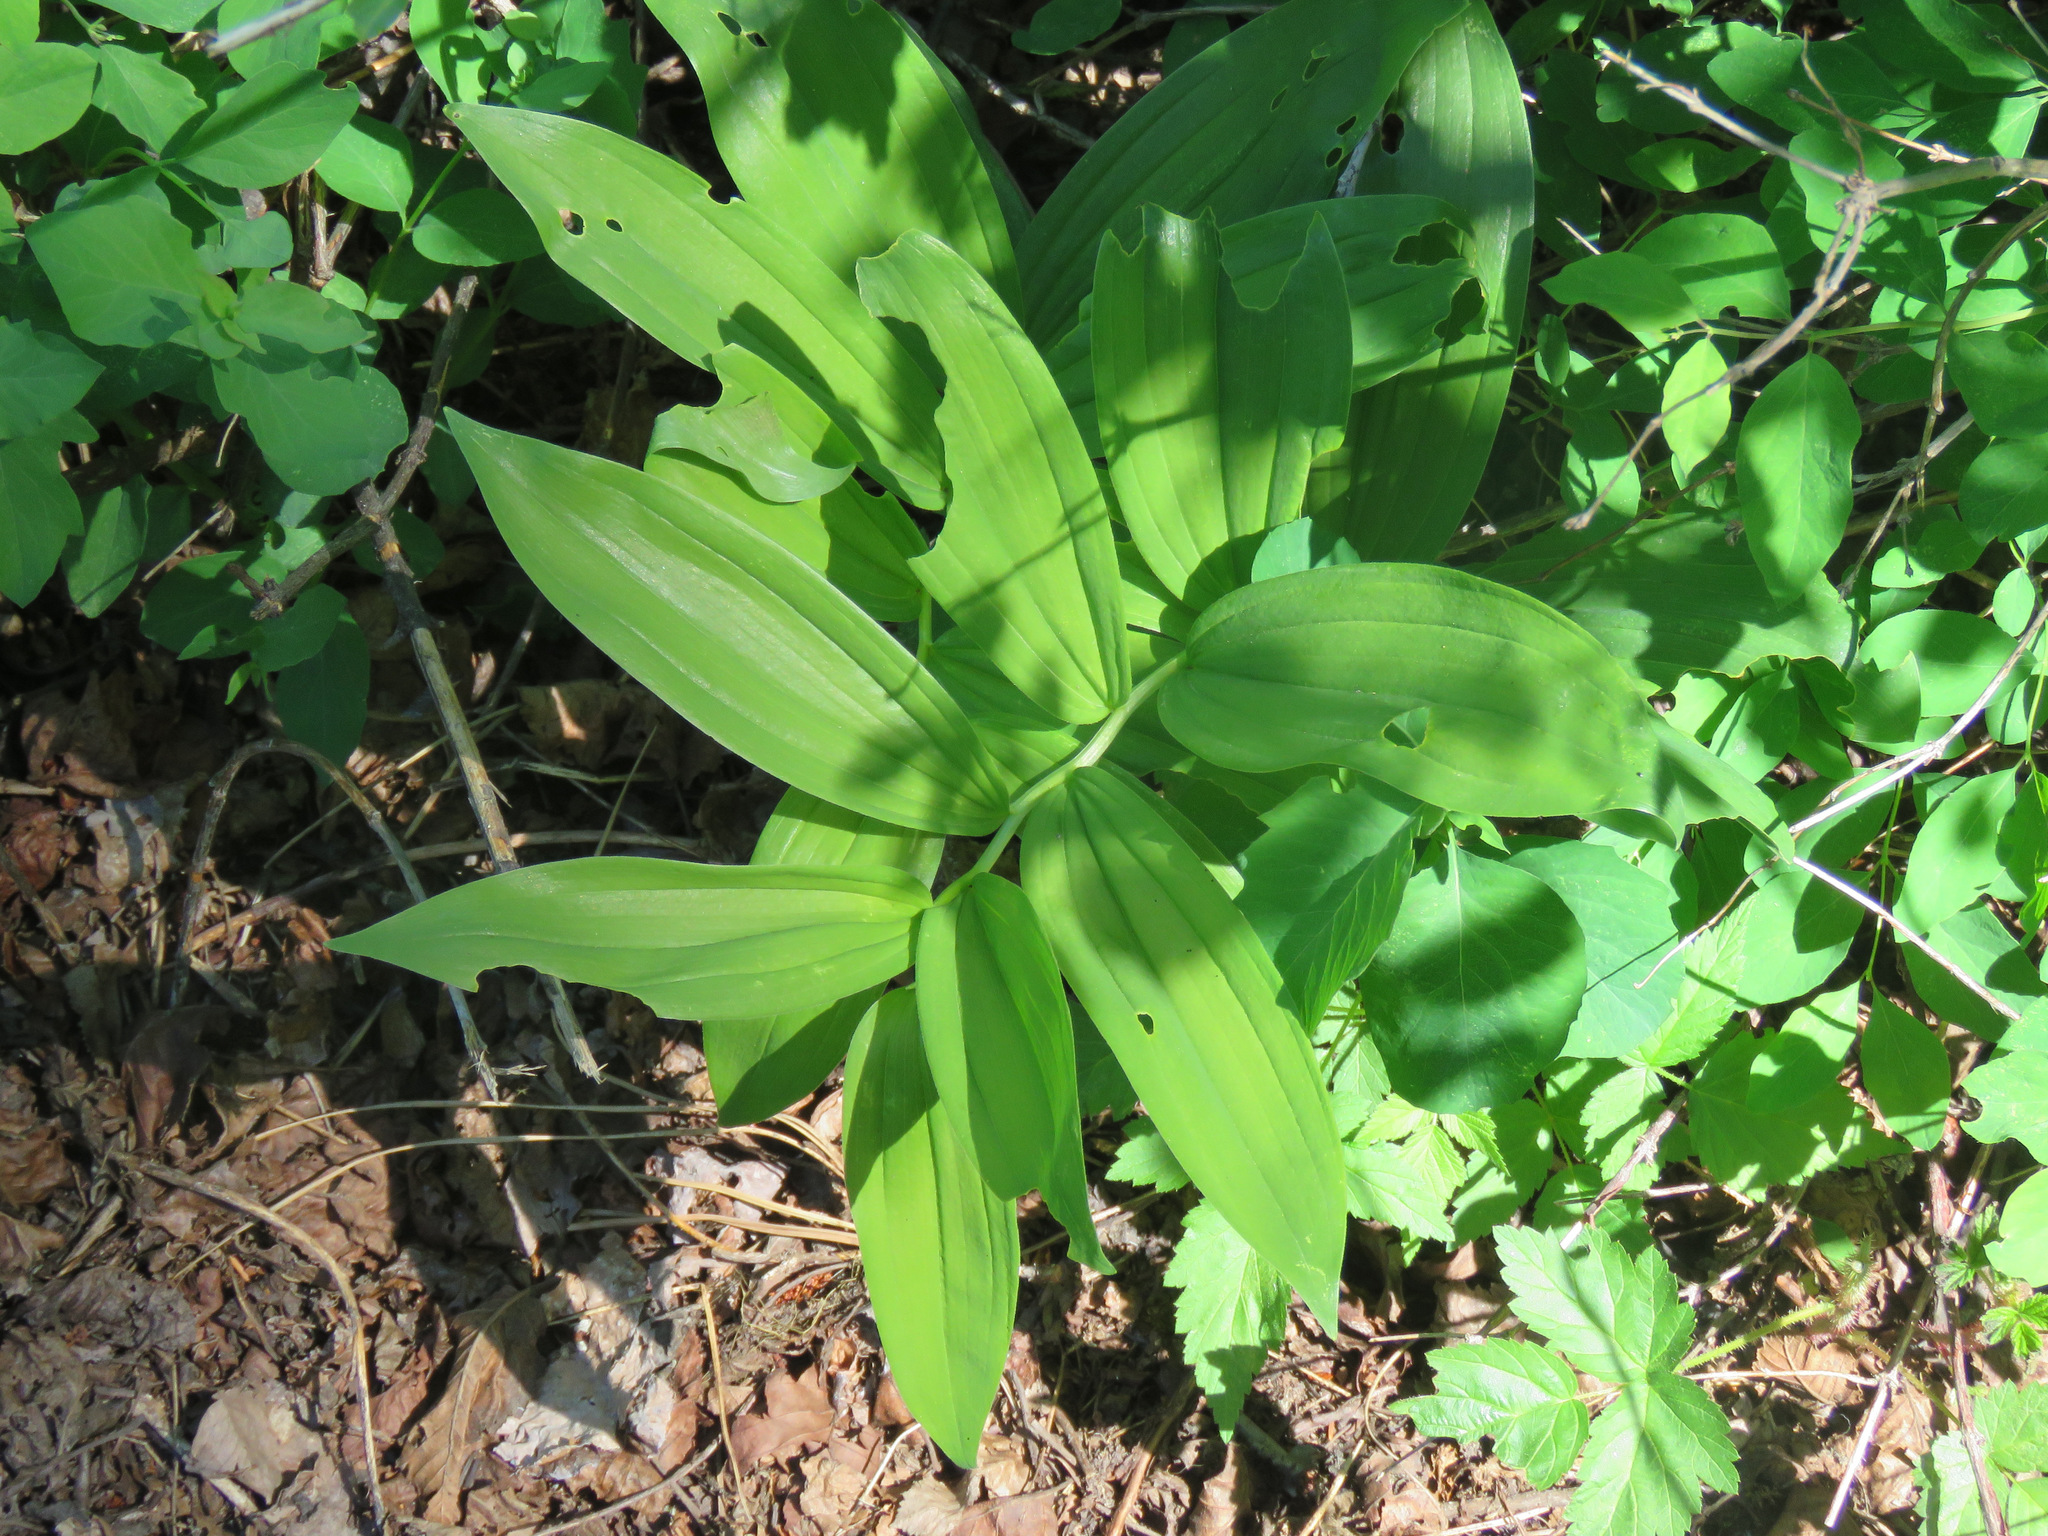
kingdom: Plantae
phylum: Tracheophyta
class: Liliopsida
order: Asparagales
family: Asparagaceae
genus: Maianthemum
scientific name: Maianthemum racemosum
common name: False spikenard
